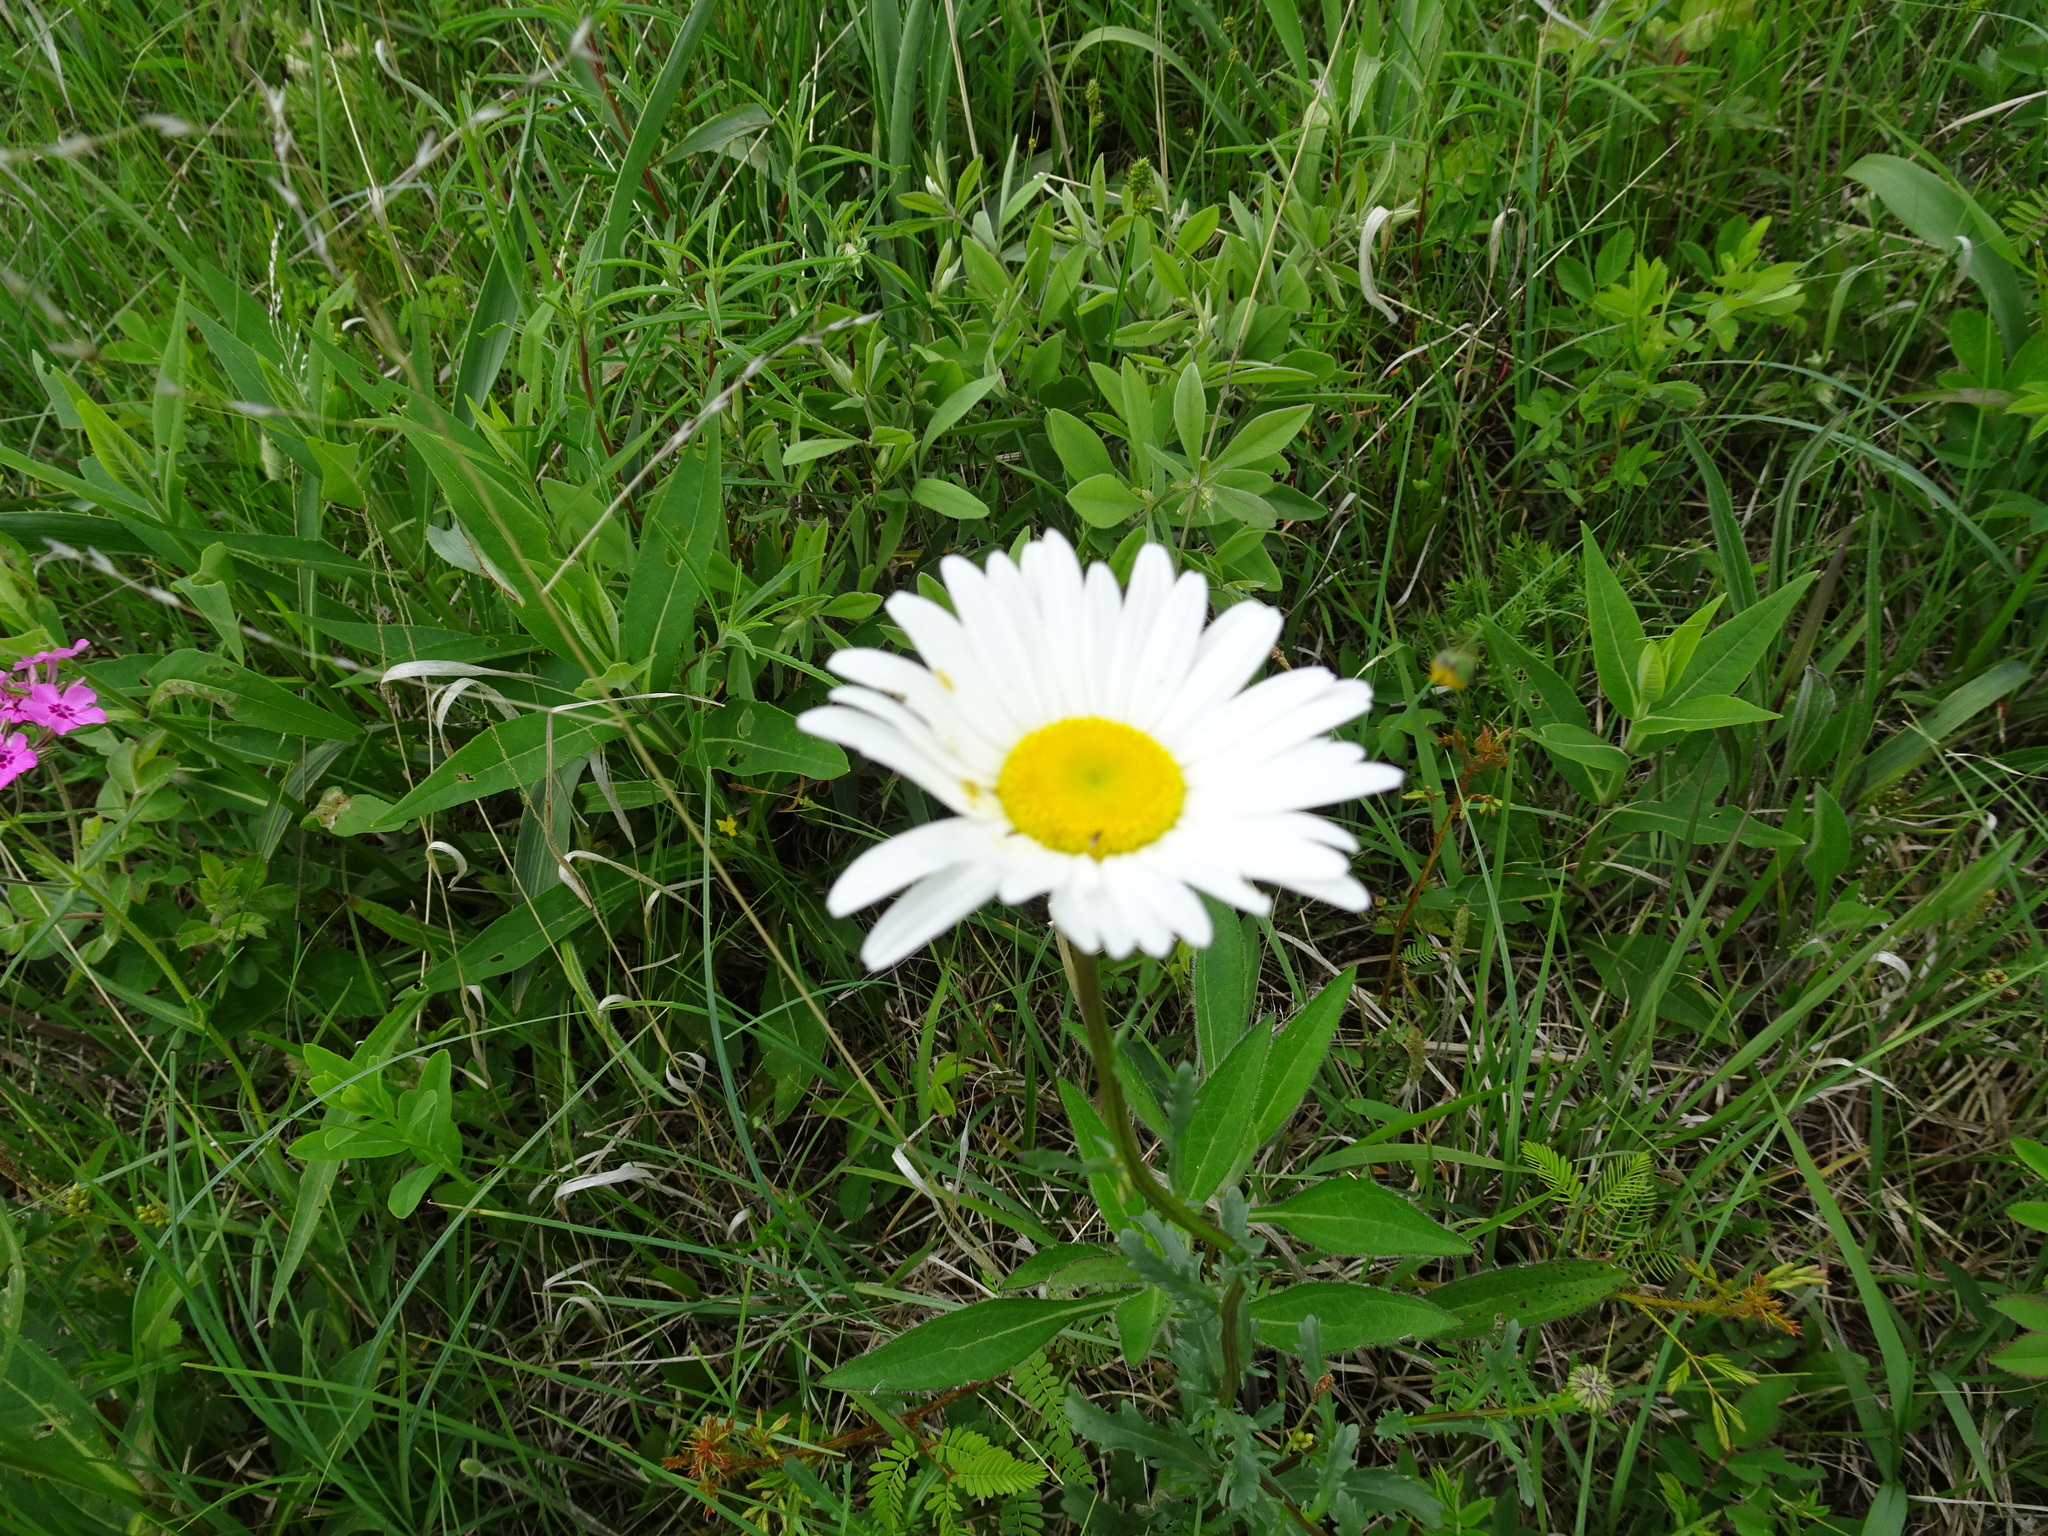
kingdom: Plantae
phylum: Tracheophyta
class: Magnoliopsida
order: Asterales
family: Asteraceae
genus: Leucanthemum
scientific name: Leucanthemum vulgare
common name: Oxeye daisy
